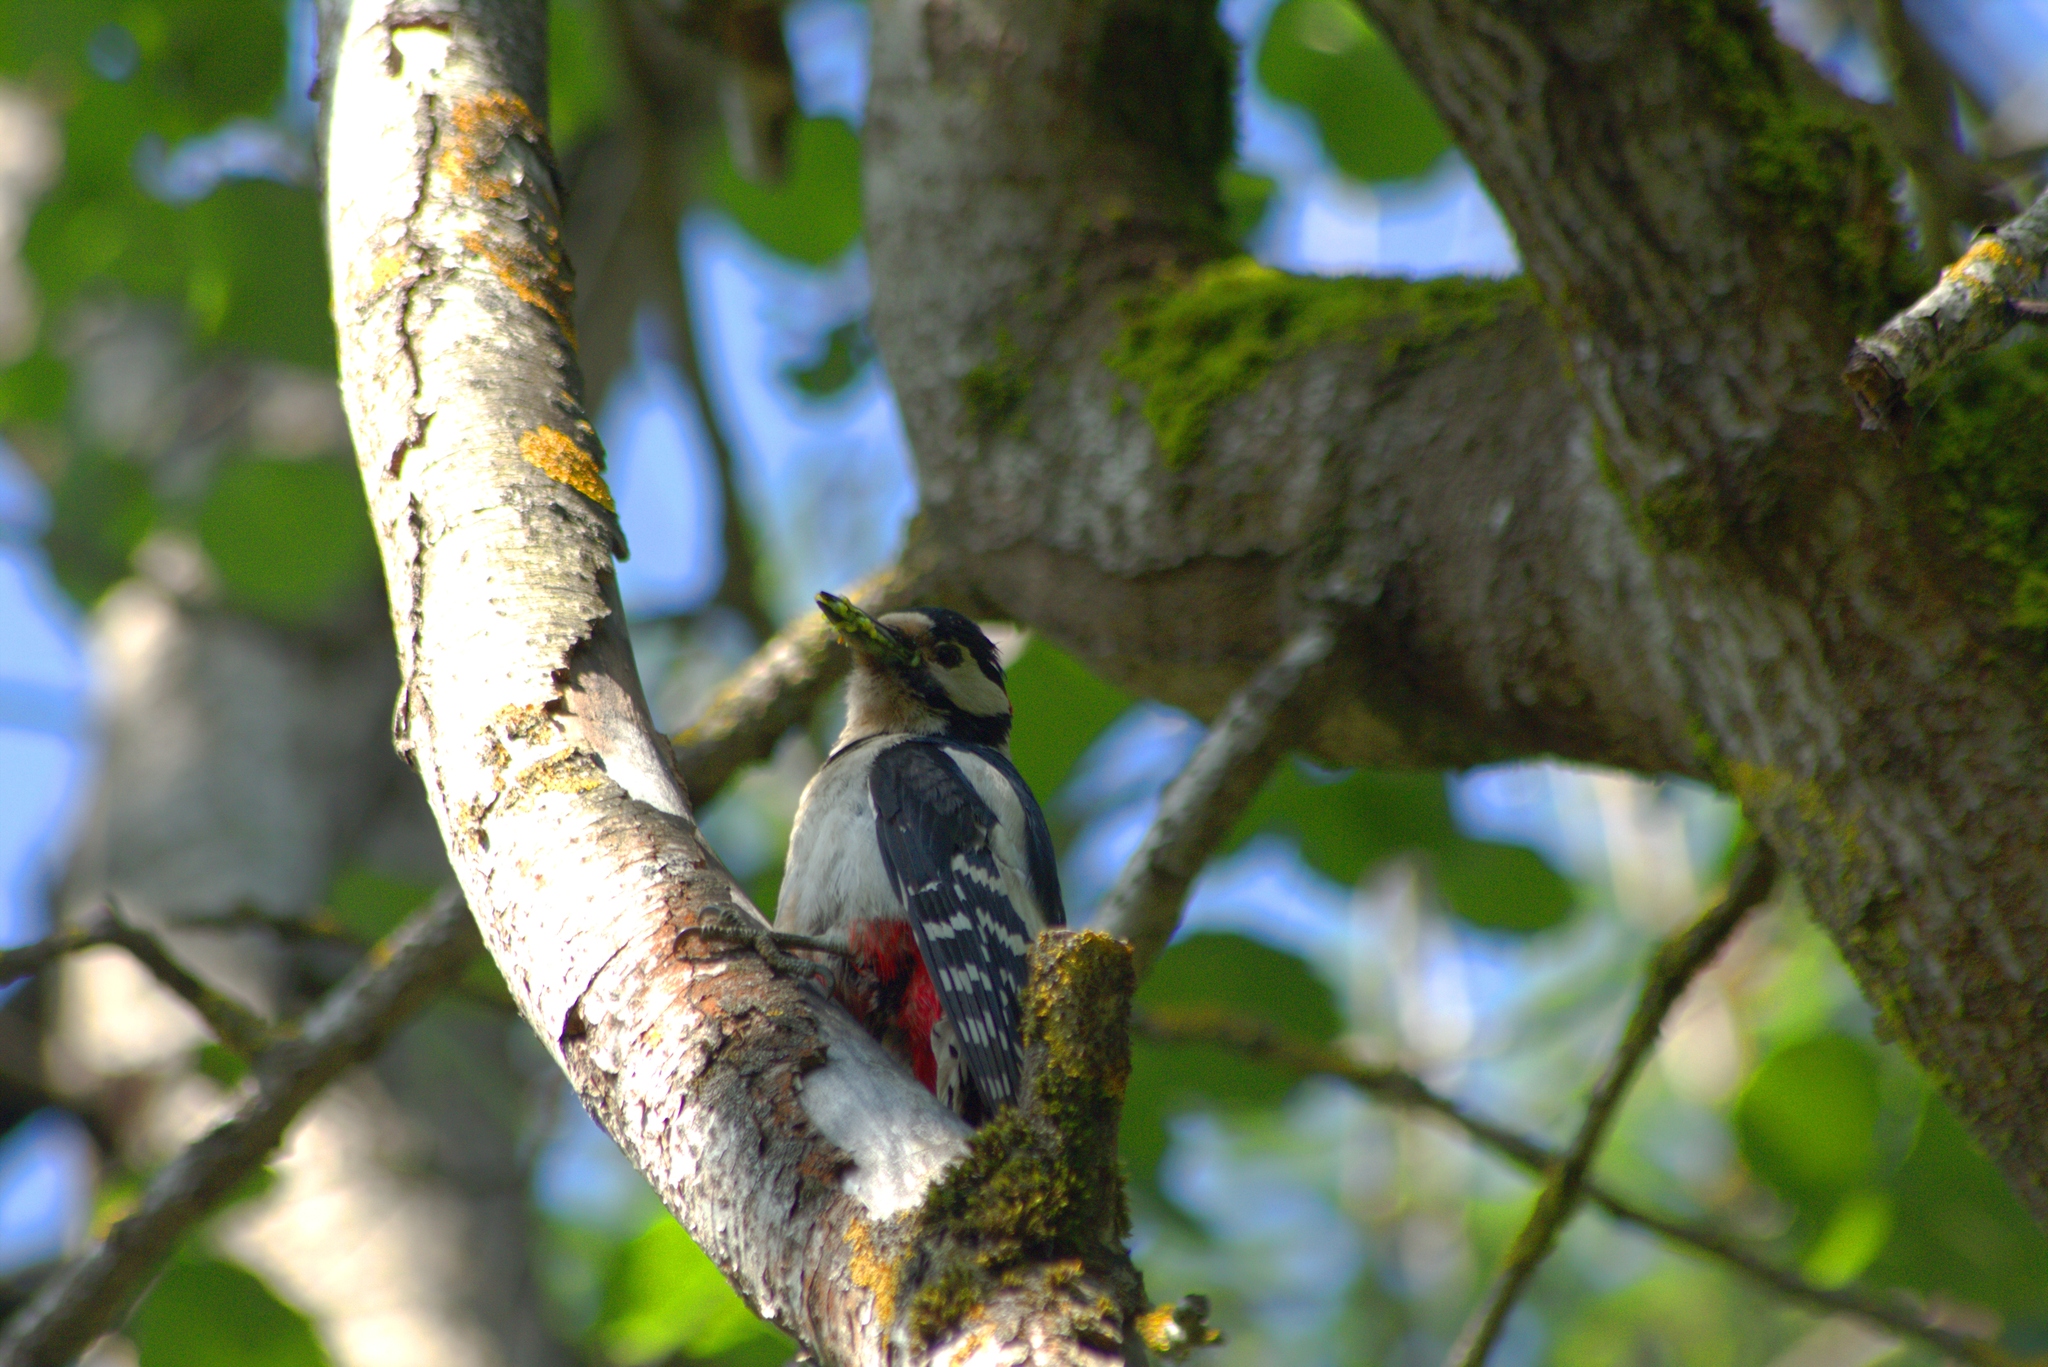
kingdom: Animalia
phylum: Chordata
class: Aves
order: Piciformes
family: Picidae
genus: Dendrocopos
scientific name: Dendrocopos major
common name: Great spotted woodpecker
